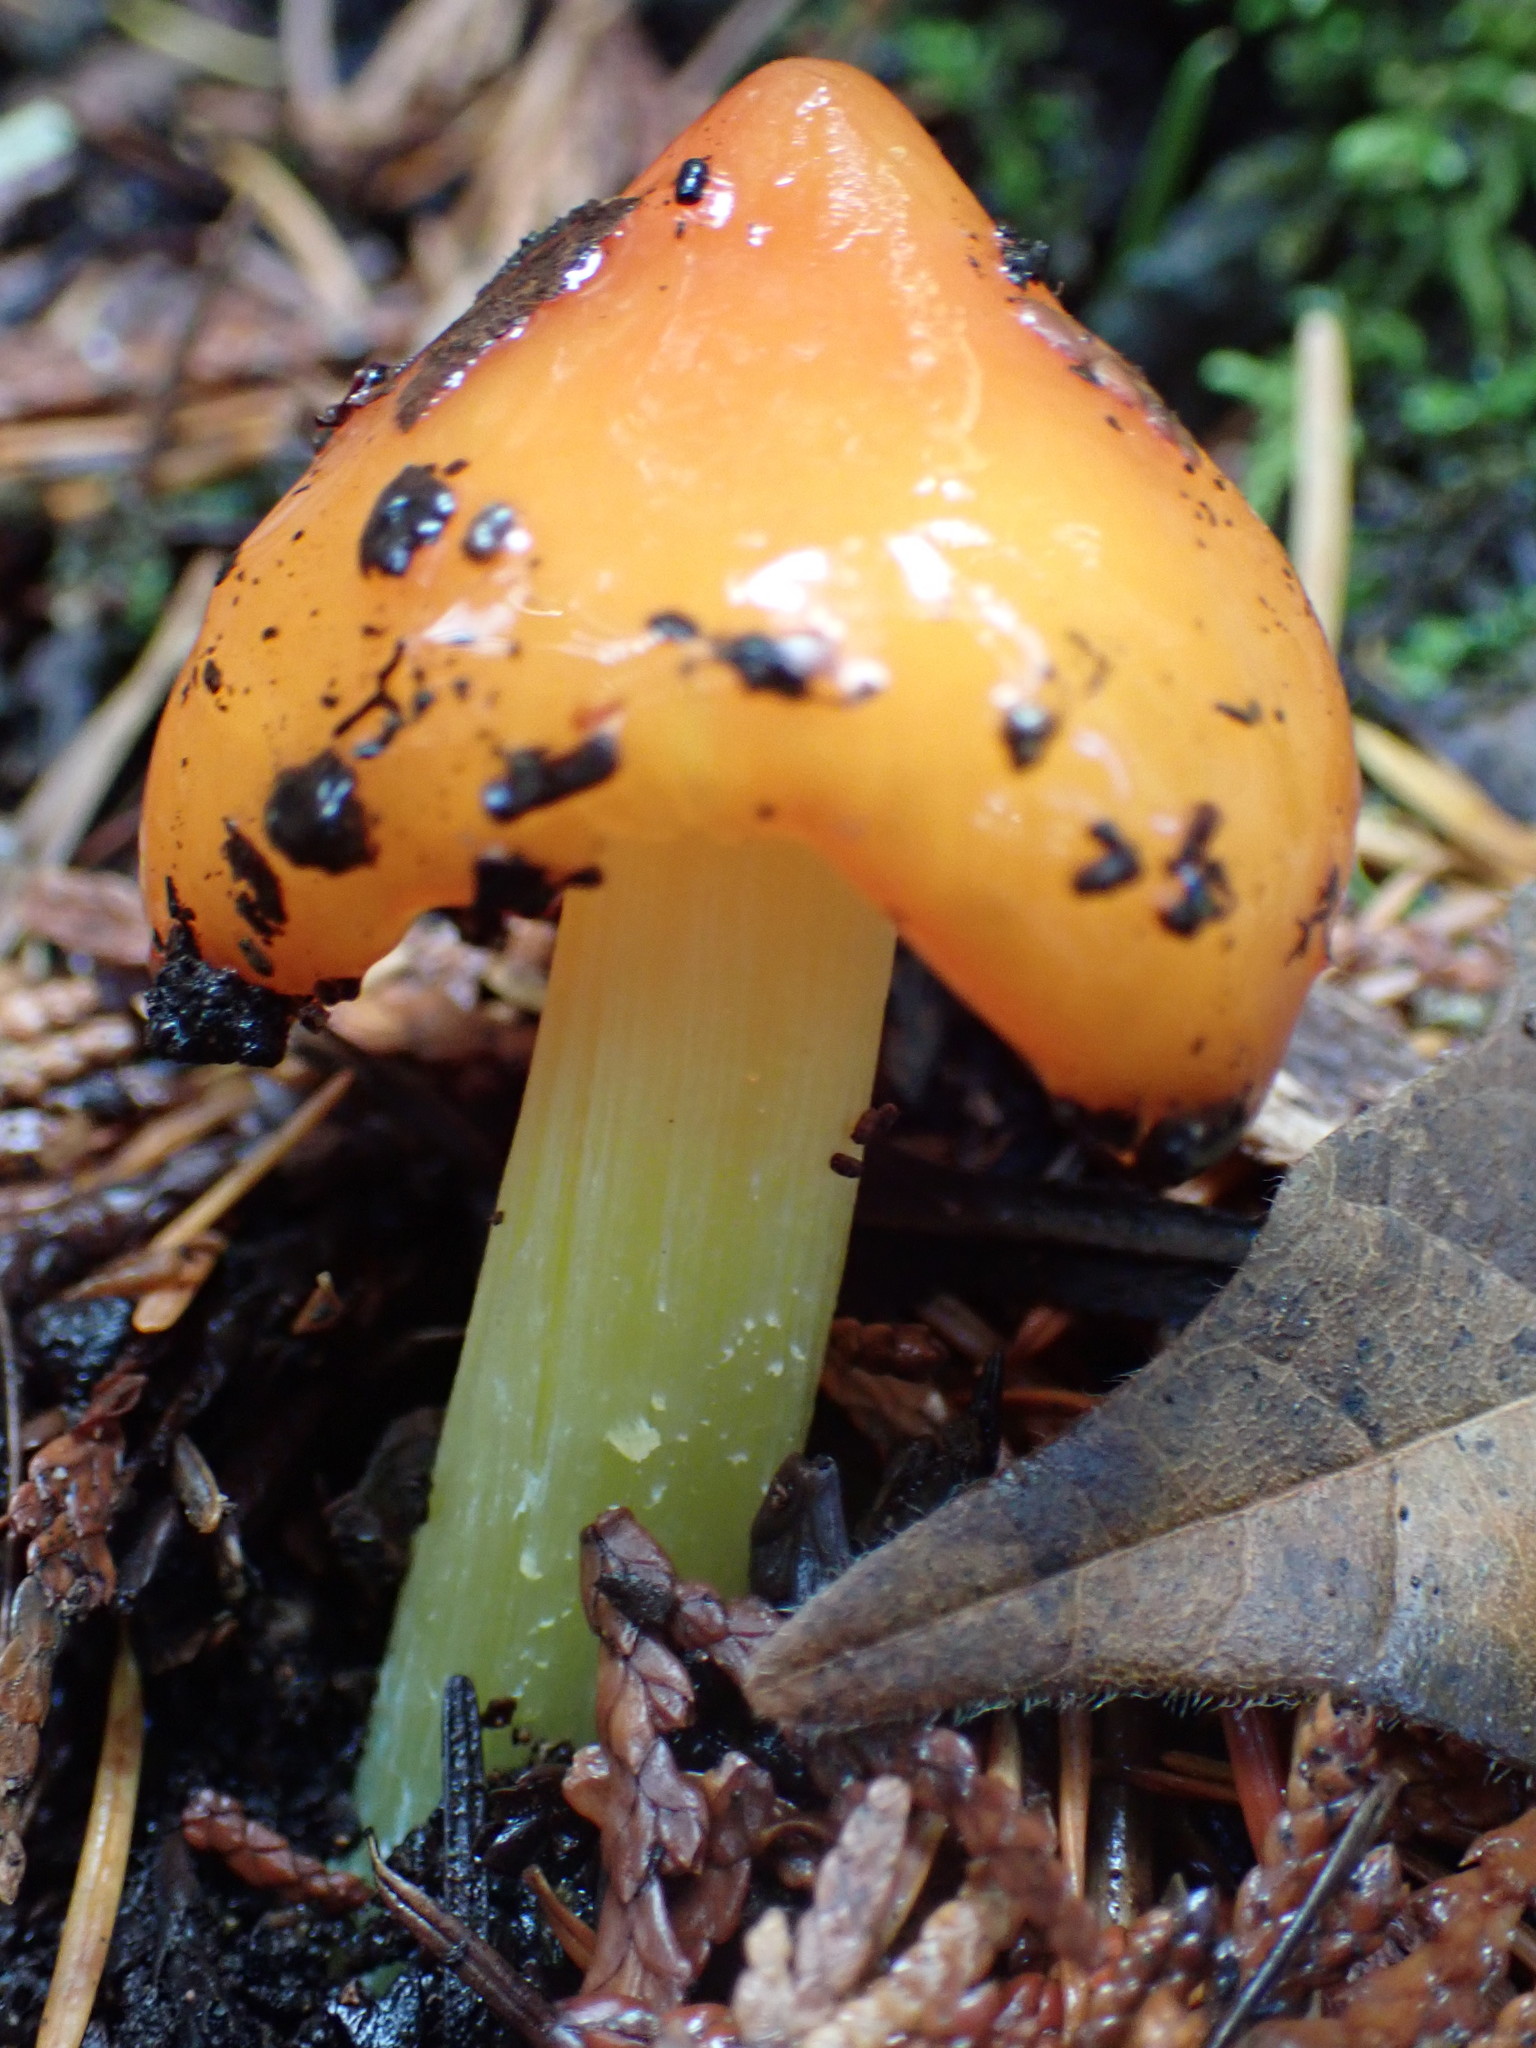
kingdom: Fungi
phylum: Basidiomycota
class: Agaricomycetes
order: Agaricales
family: Hygrophoraceae
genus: Hygrocybe
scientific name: Hygrocybe acutoconica
